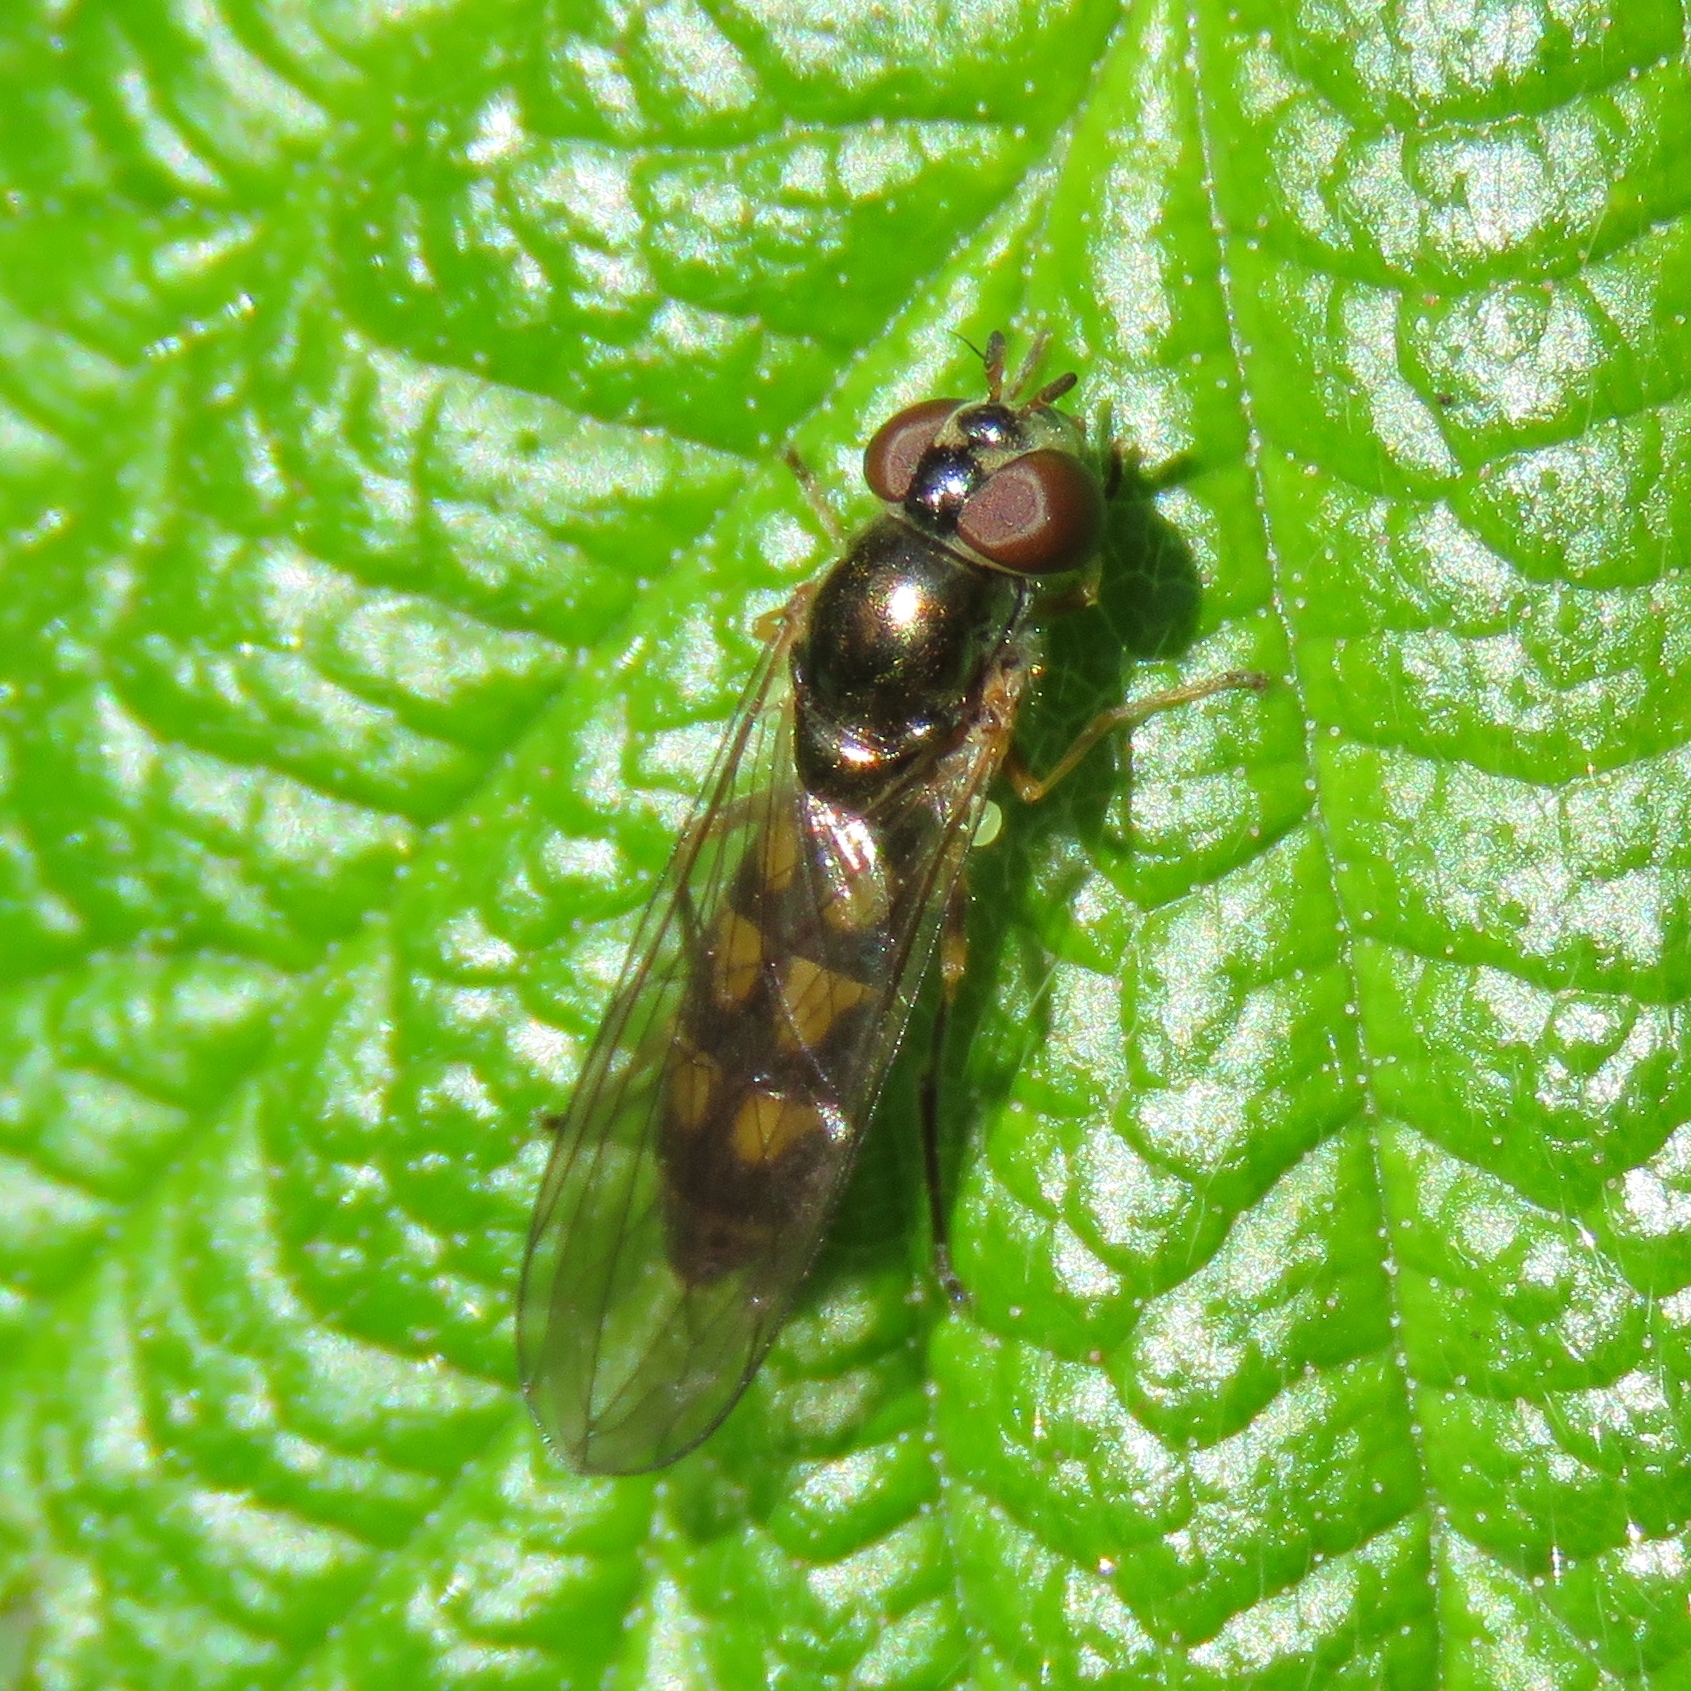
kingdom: Animalia
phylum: Arthropoda
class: Insecta
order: Diptera
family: Syrphidae
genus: Melanostoma
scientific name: Melanostoma scalare
